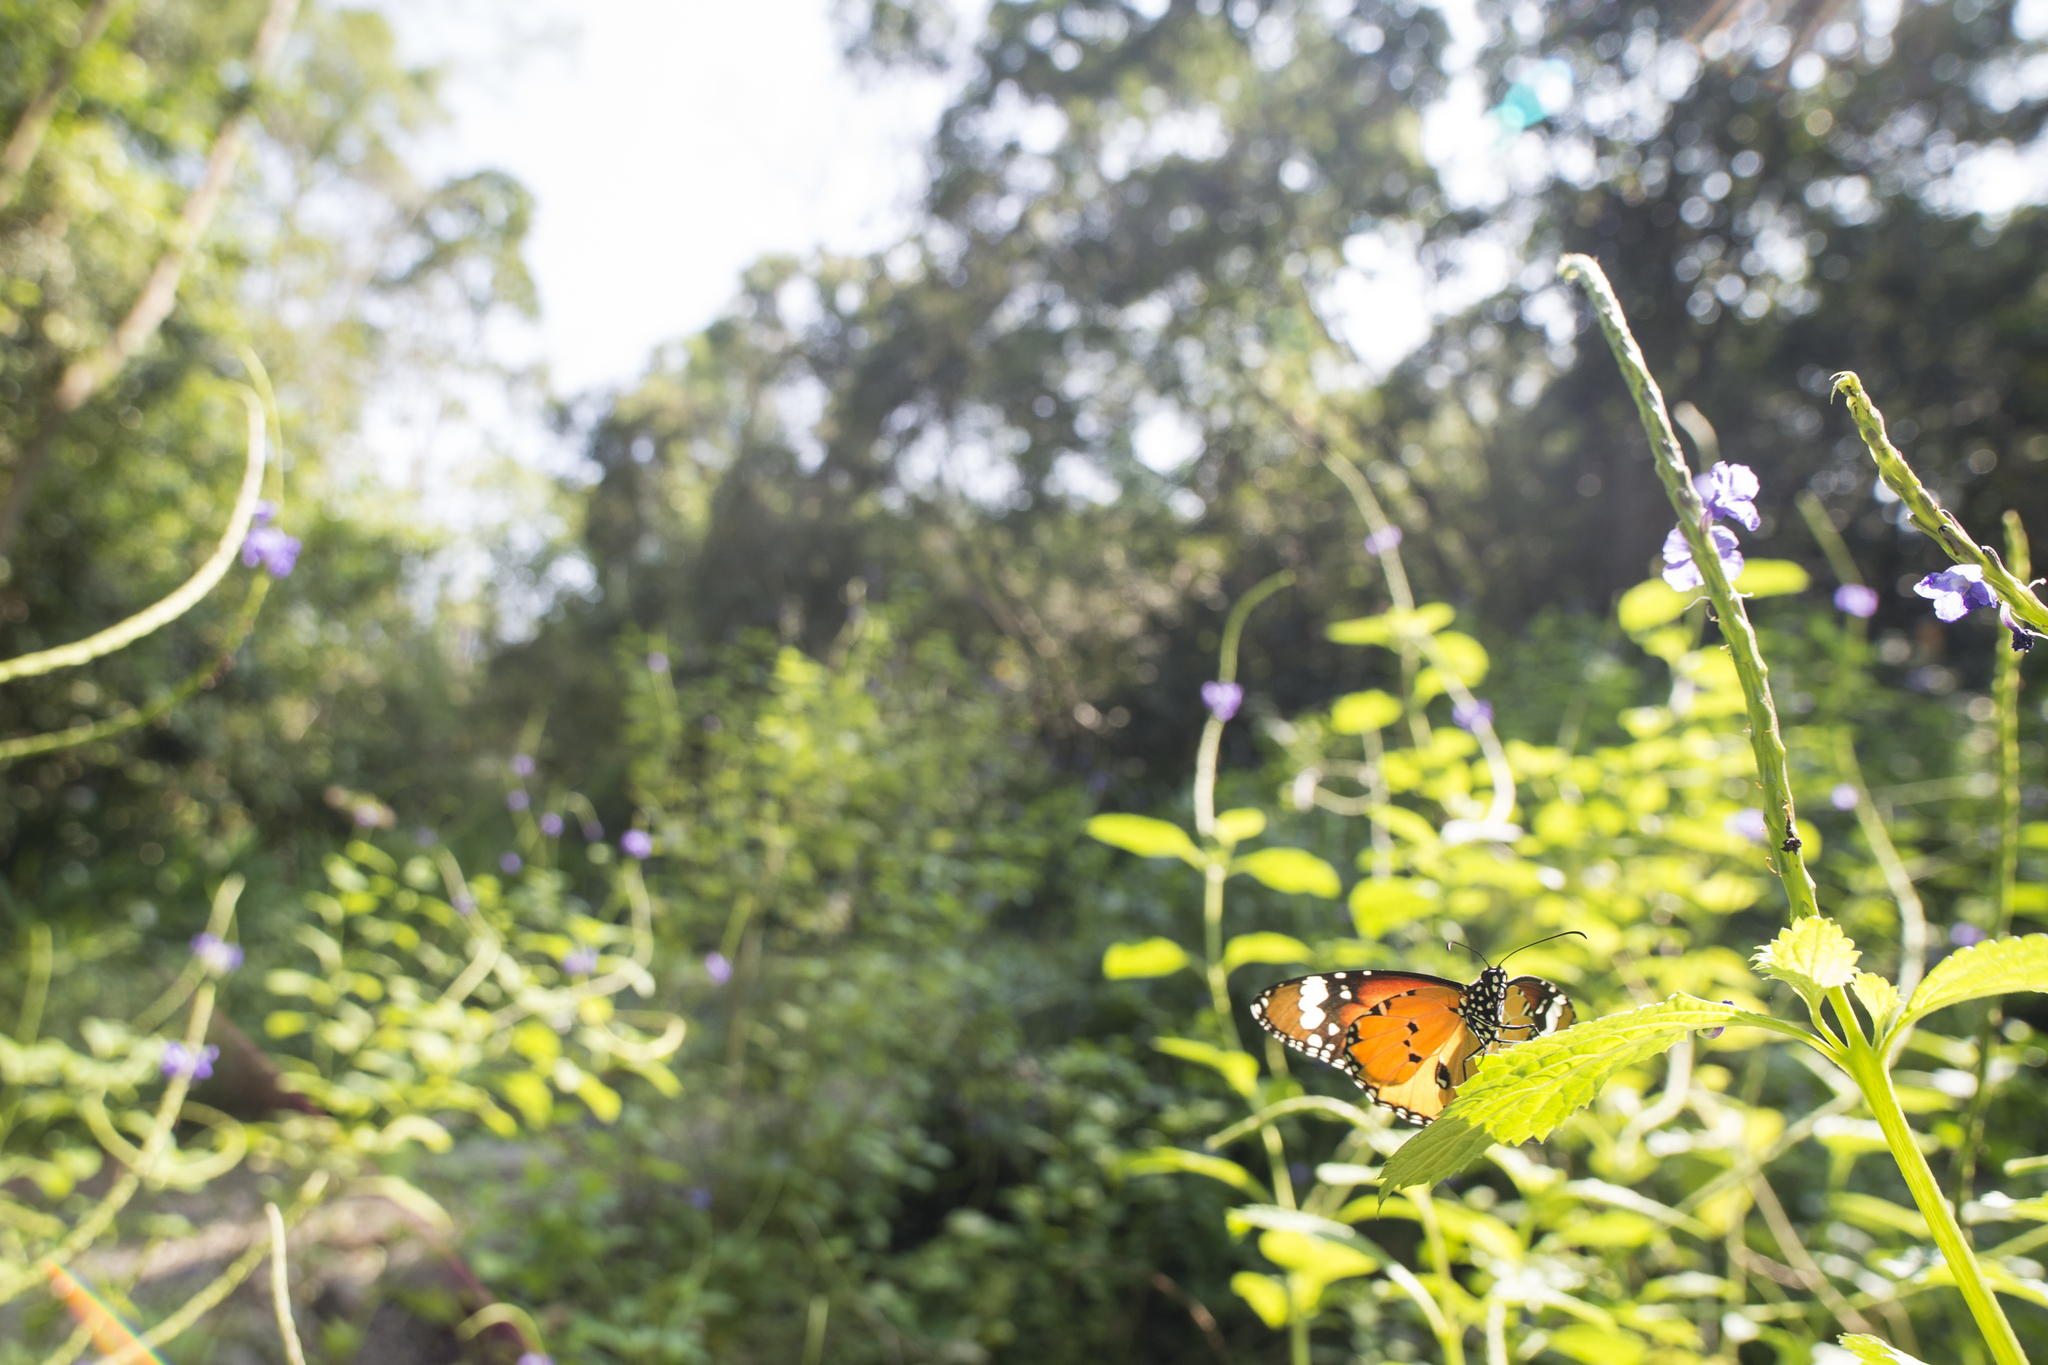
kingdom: Animalia
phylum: Arthropoda
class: Insecta
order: Lepidoptera
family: Nymphalidae
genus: Danaus
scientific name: Danaus chrysippus
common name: Plain tiger
